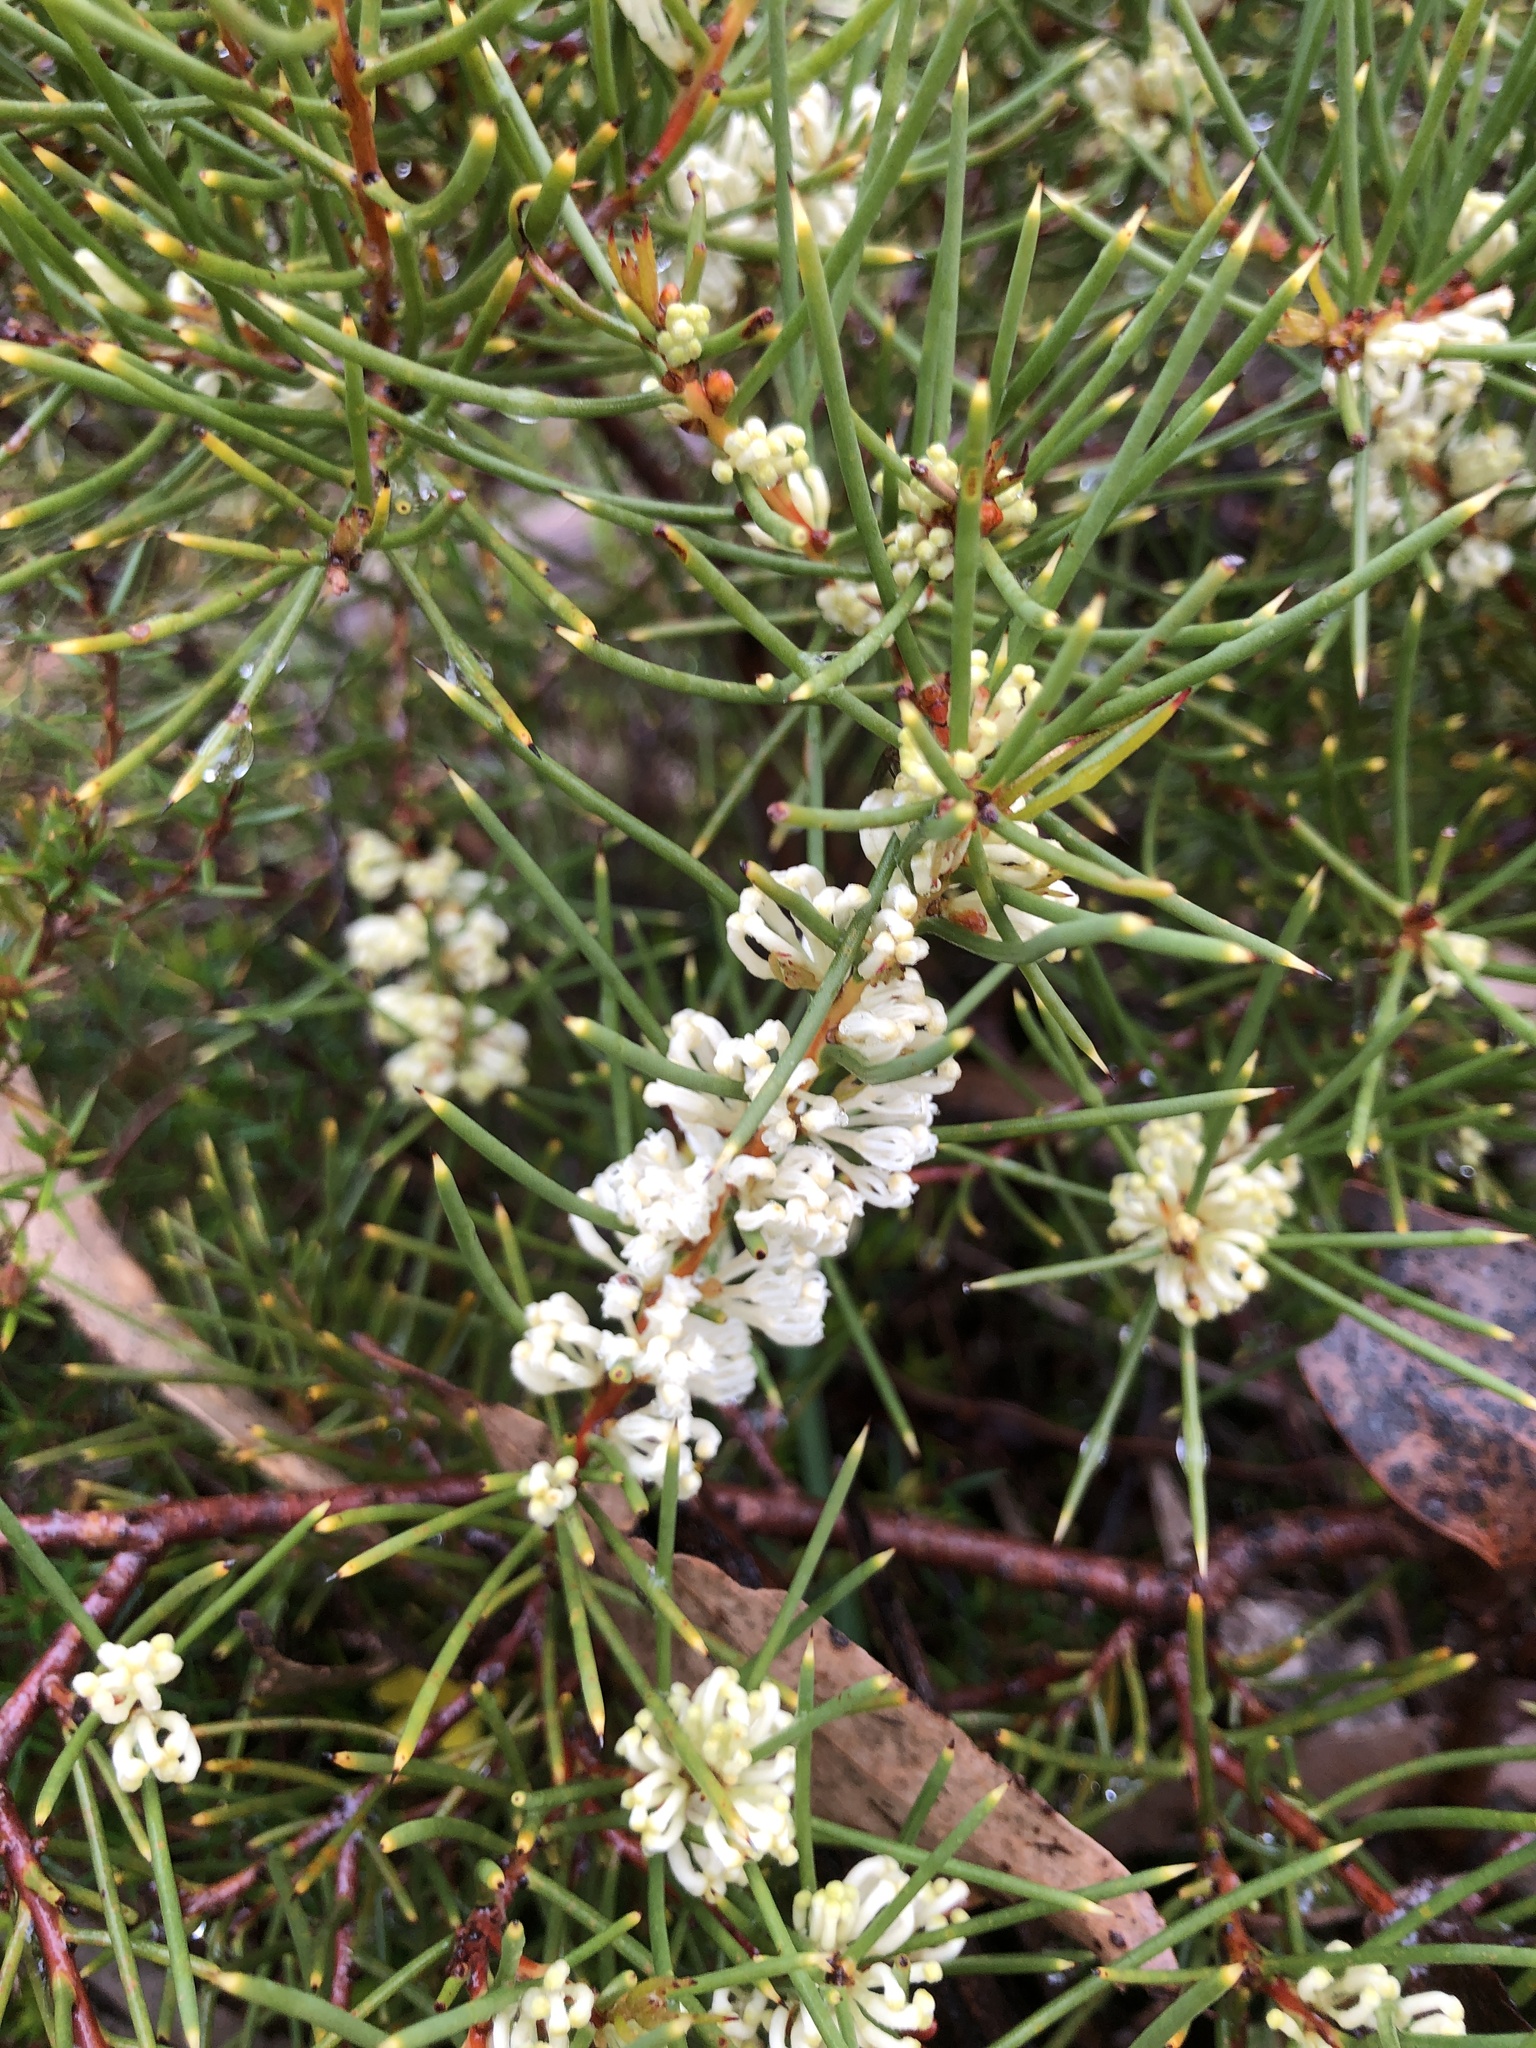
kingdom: Plantae
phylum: Tracheophyta
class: Magnoliopsida
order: Proteales
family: Proteaceae
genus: Hakea
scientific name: Hakea rugosa
